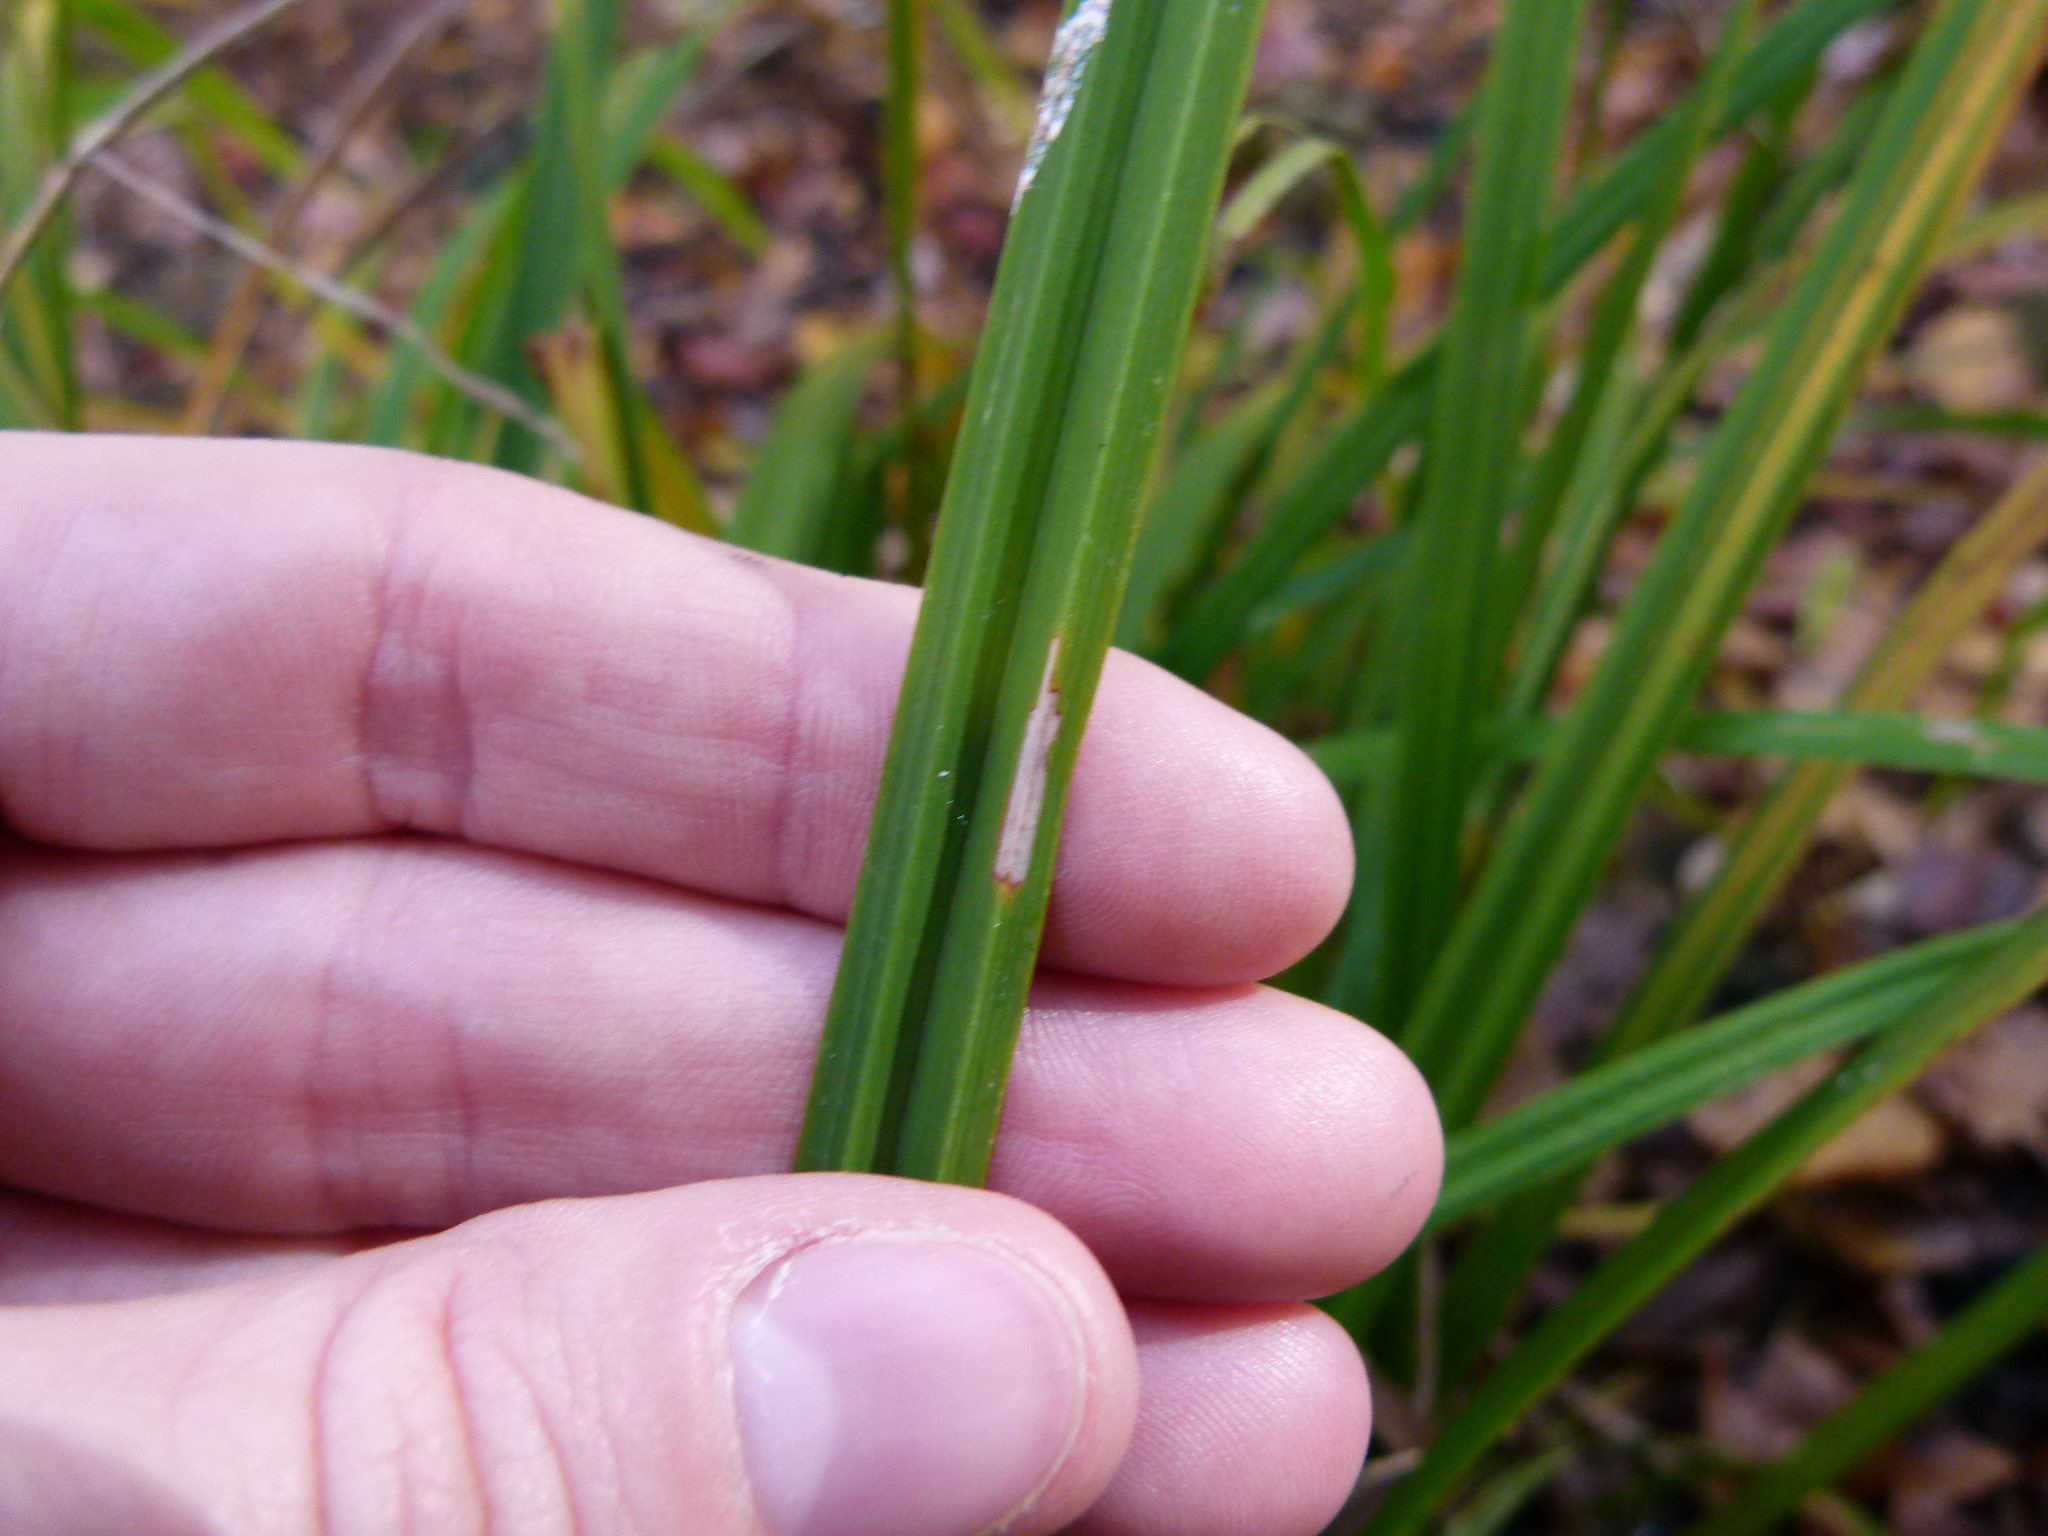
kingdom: Plantae
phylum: Tracheophyta
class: Liliopsida
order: Poales
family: Cyperaceae
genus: Carex
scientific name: Carex typhina
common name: Cattail sedge
